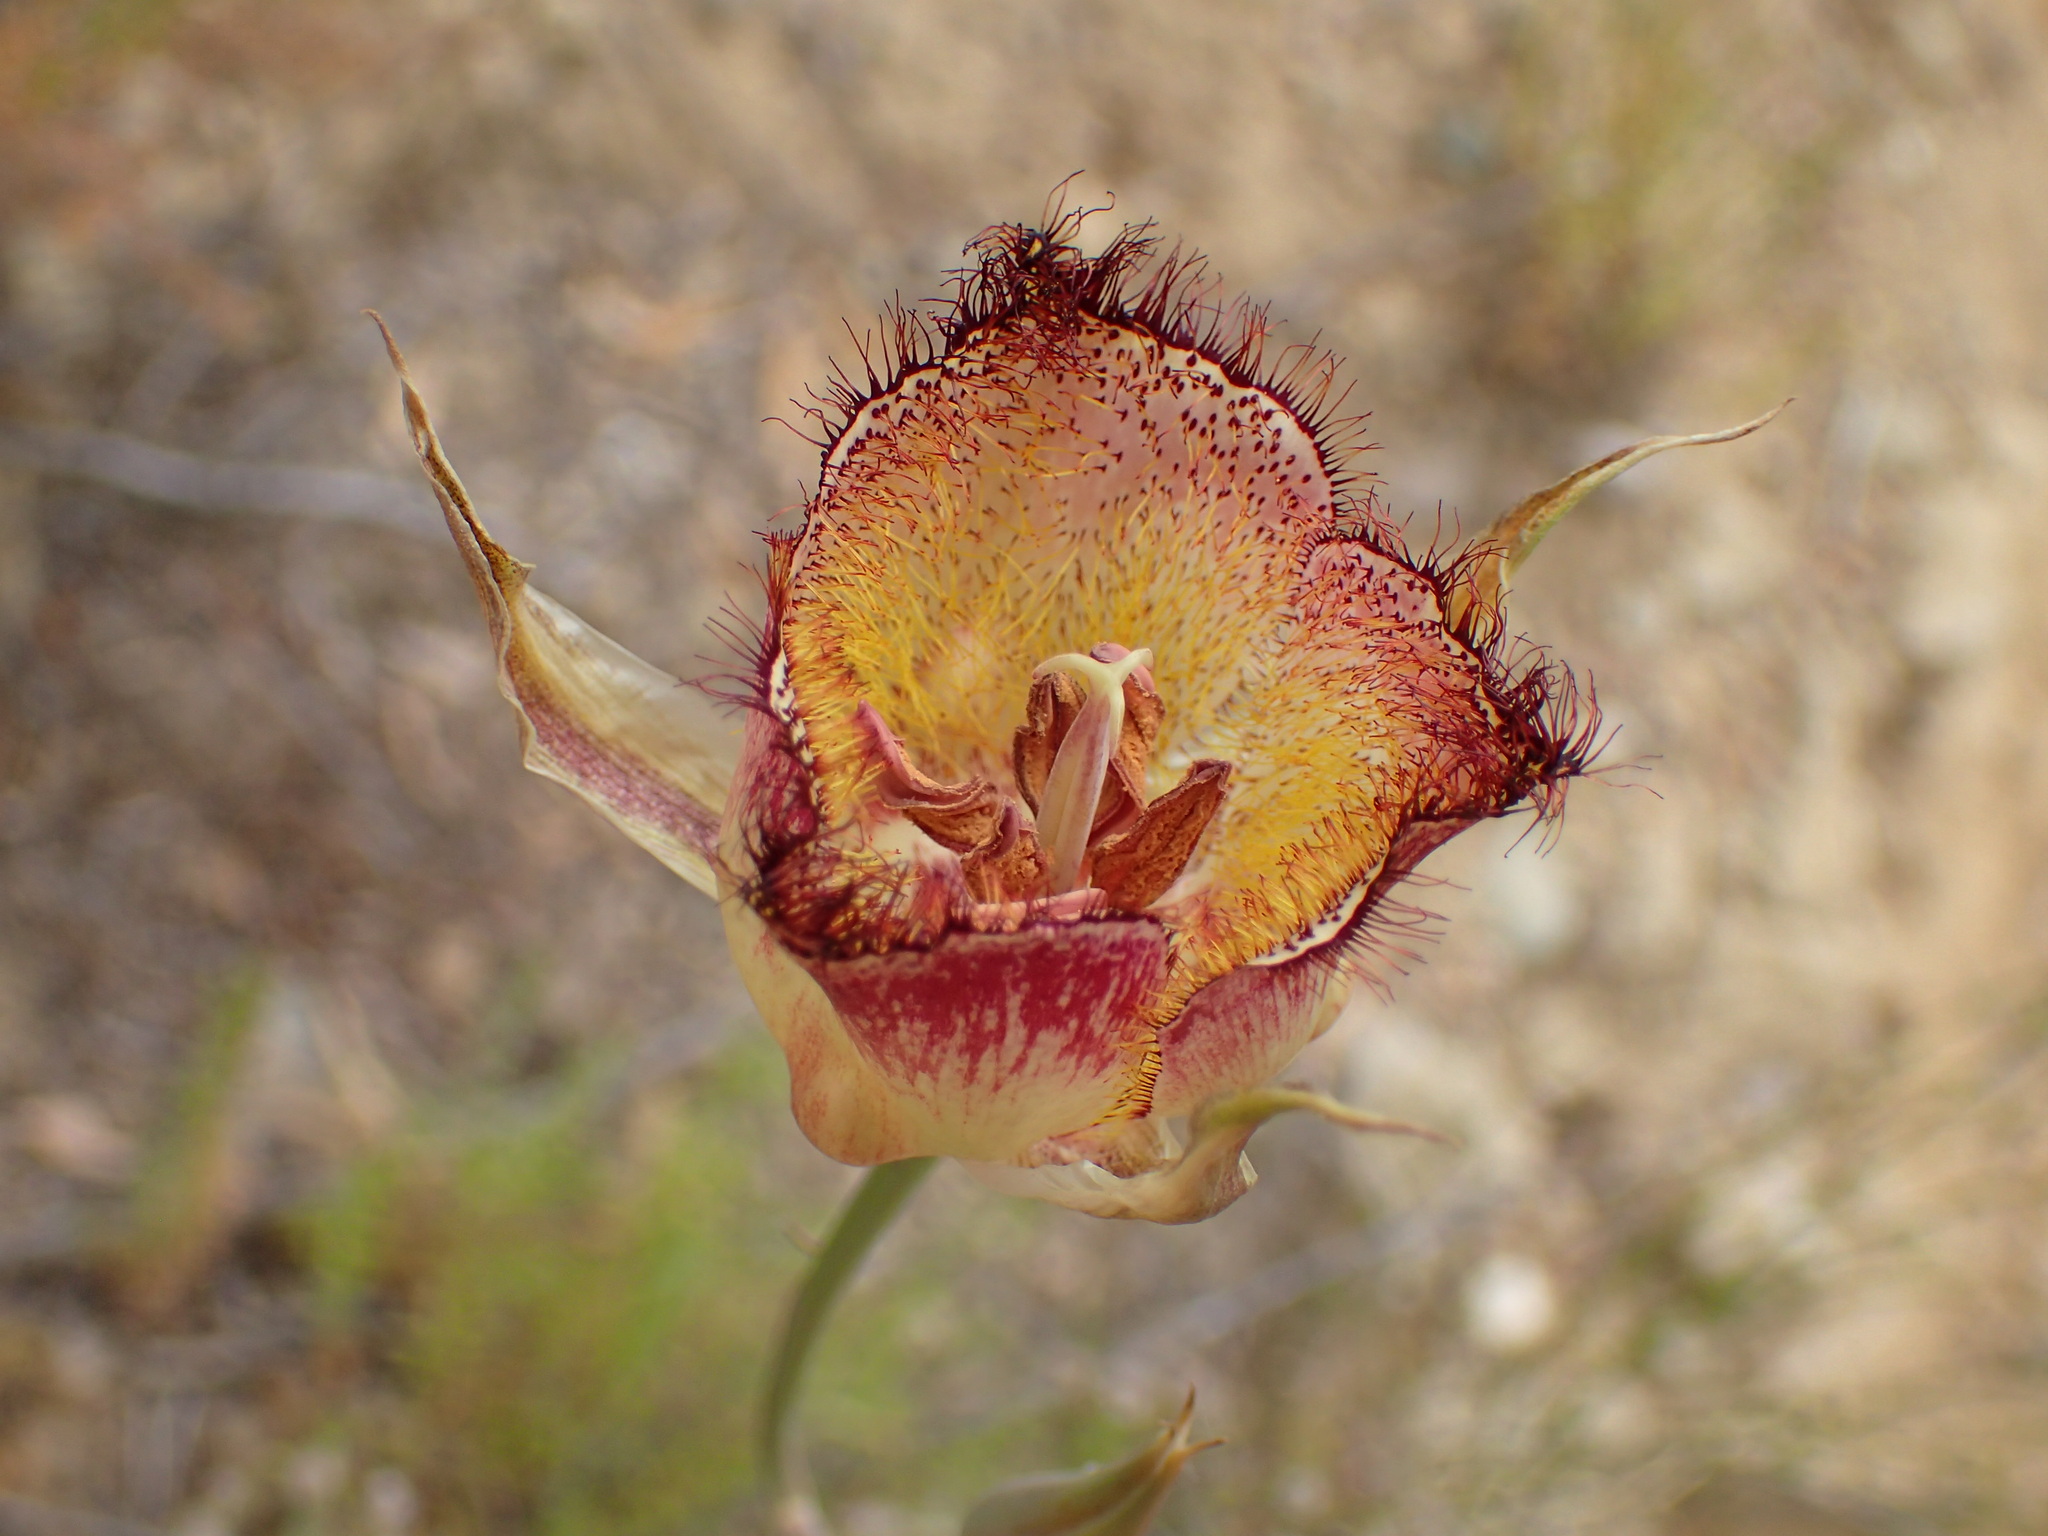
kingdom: Plantae
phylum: Tracheophyta
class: Liliopsida
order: Liliales
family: Liliaceae
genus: Calochortus
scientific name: Calochortus fimbriatus
